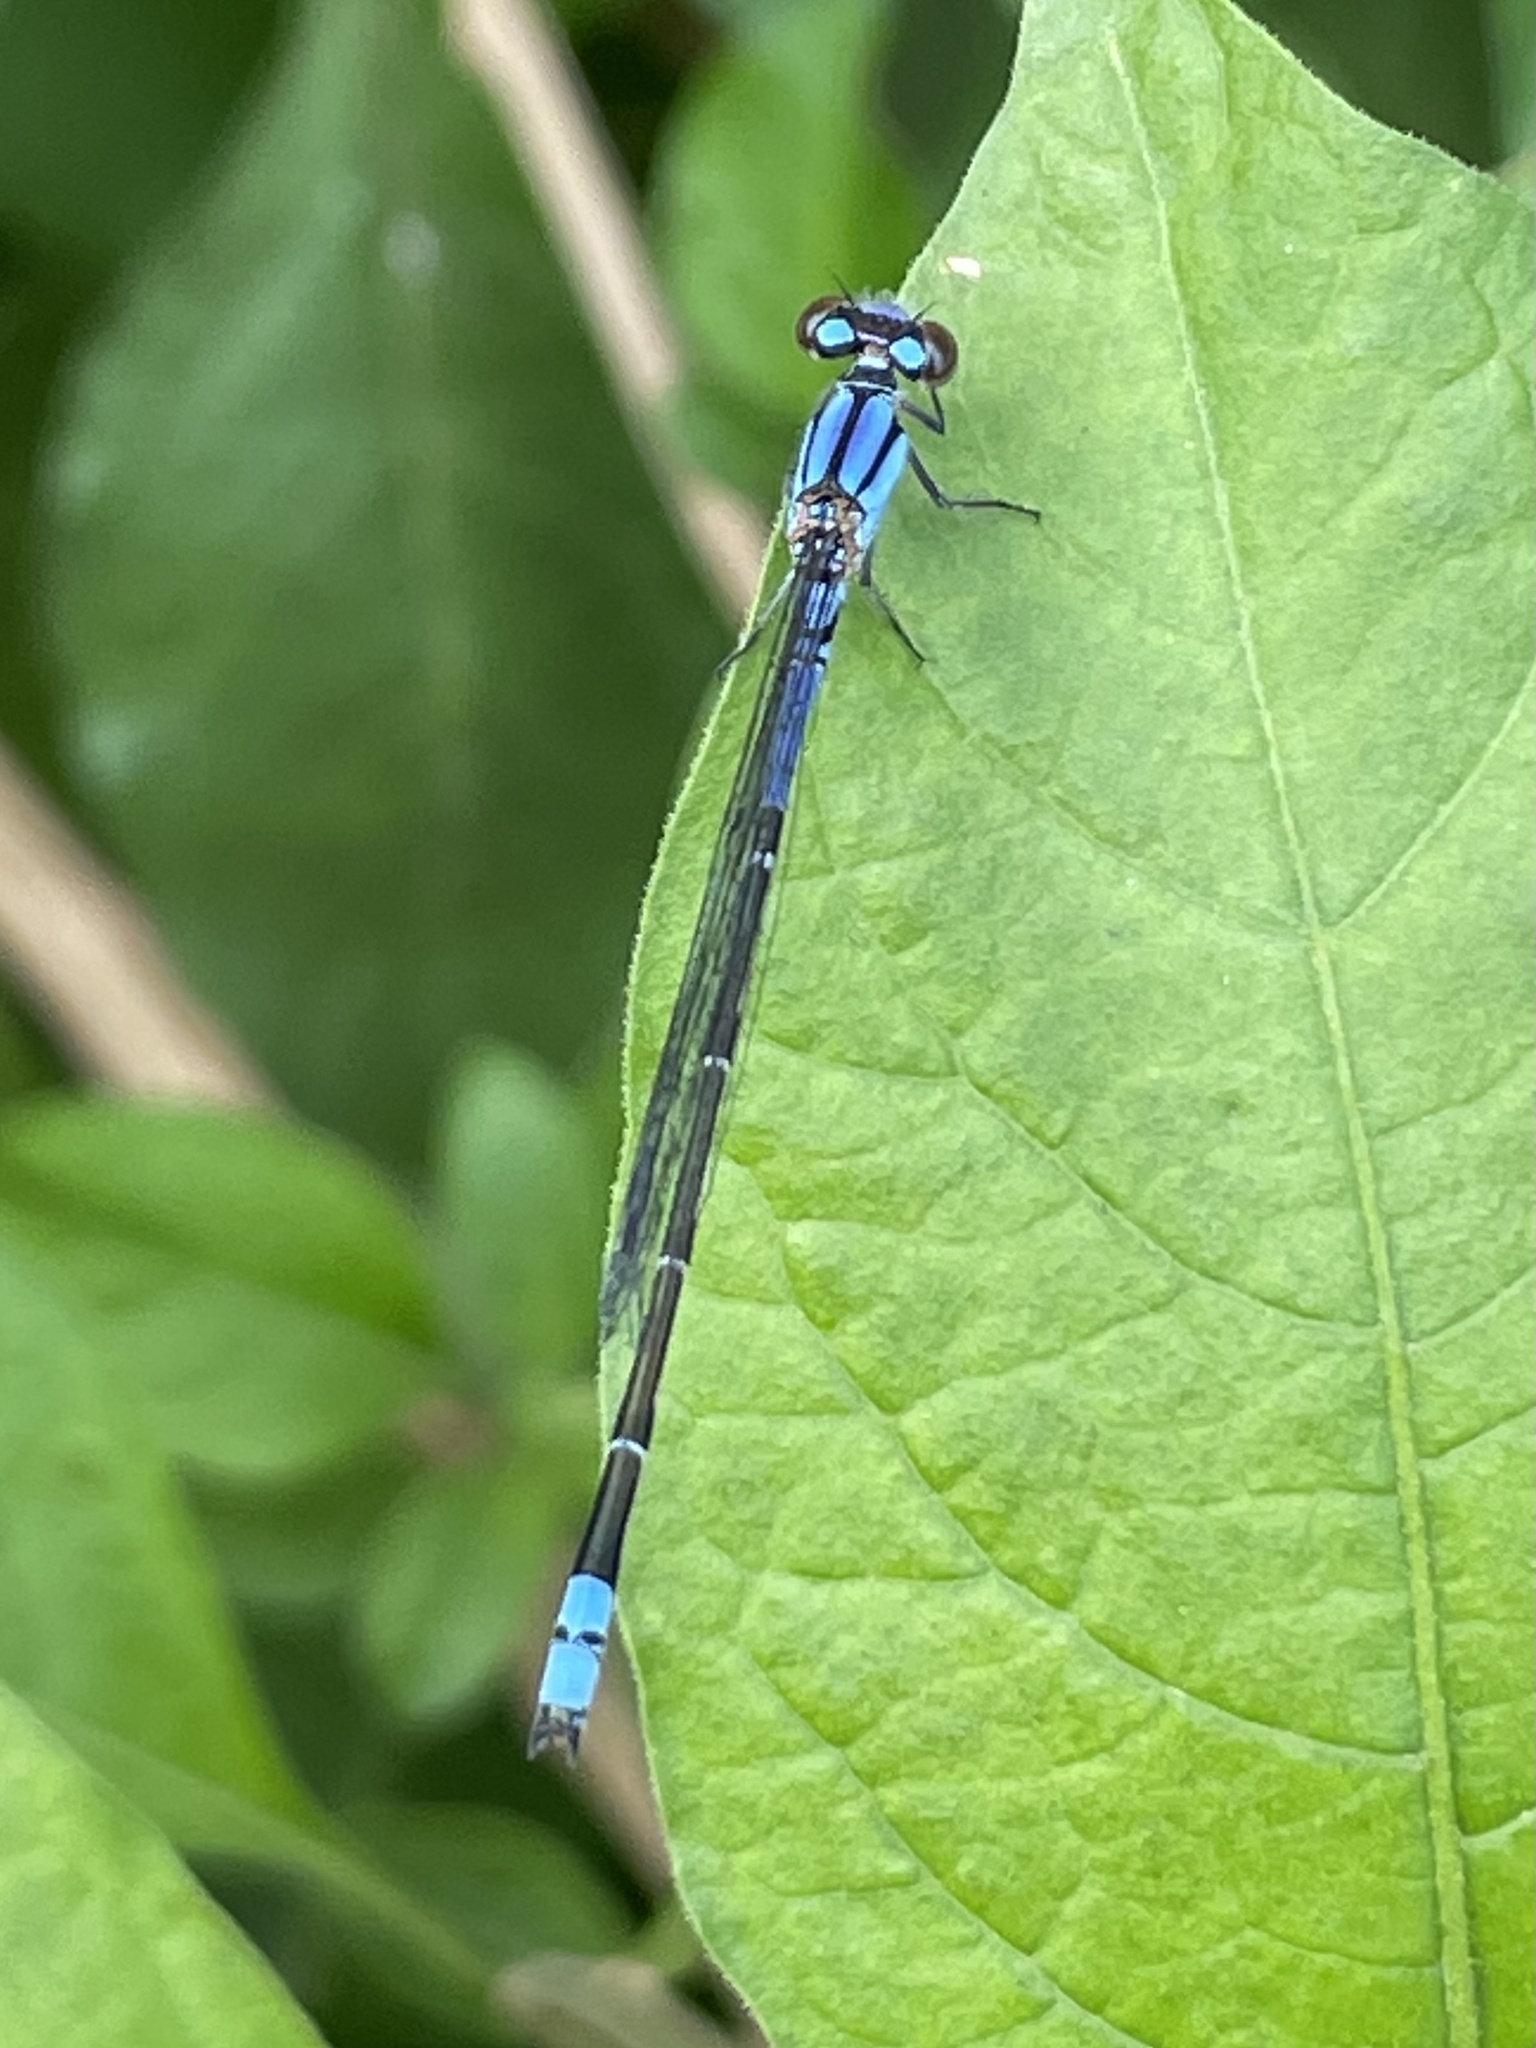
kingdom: Animalia
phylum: Arthropoda
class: Insecta
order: Odonata
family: Coenagrionidae
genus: Enallagma
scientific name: Enallagma novaehispaniae
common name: Neotropical bluet
